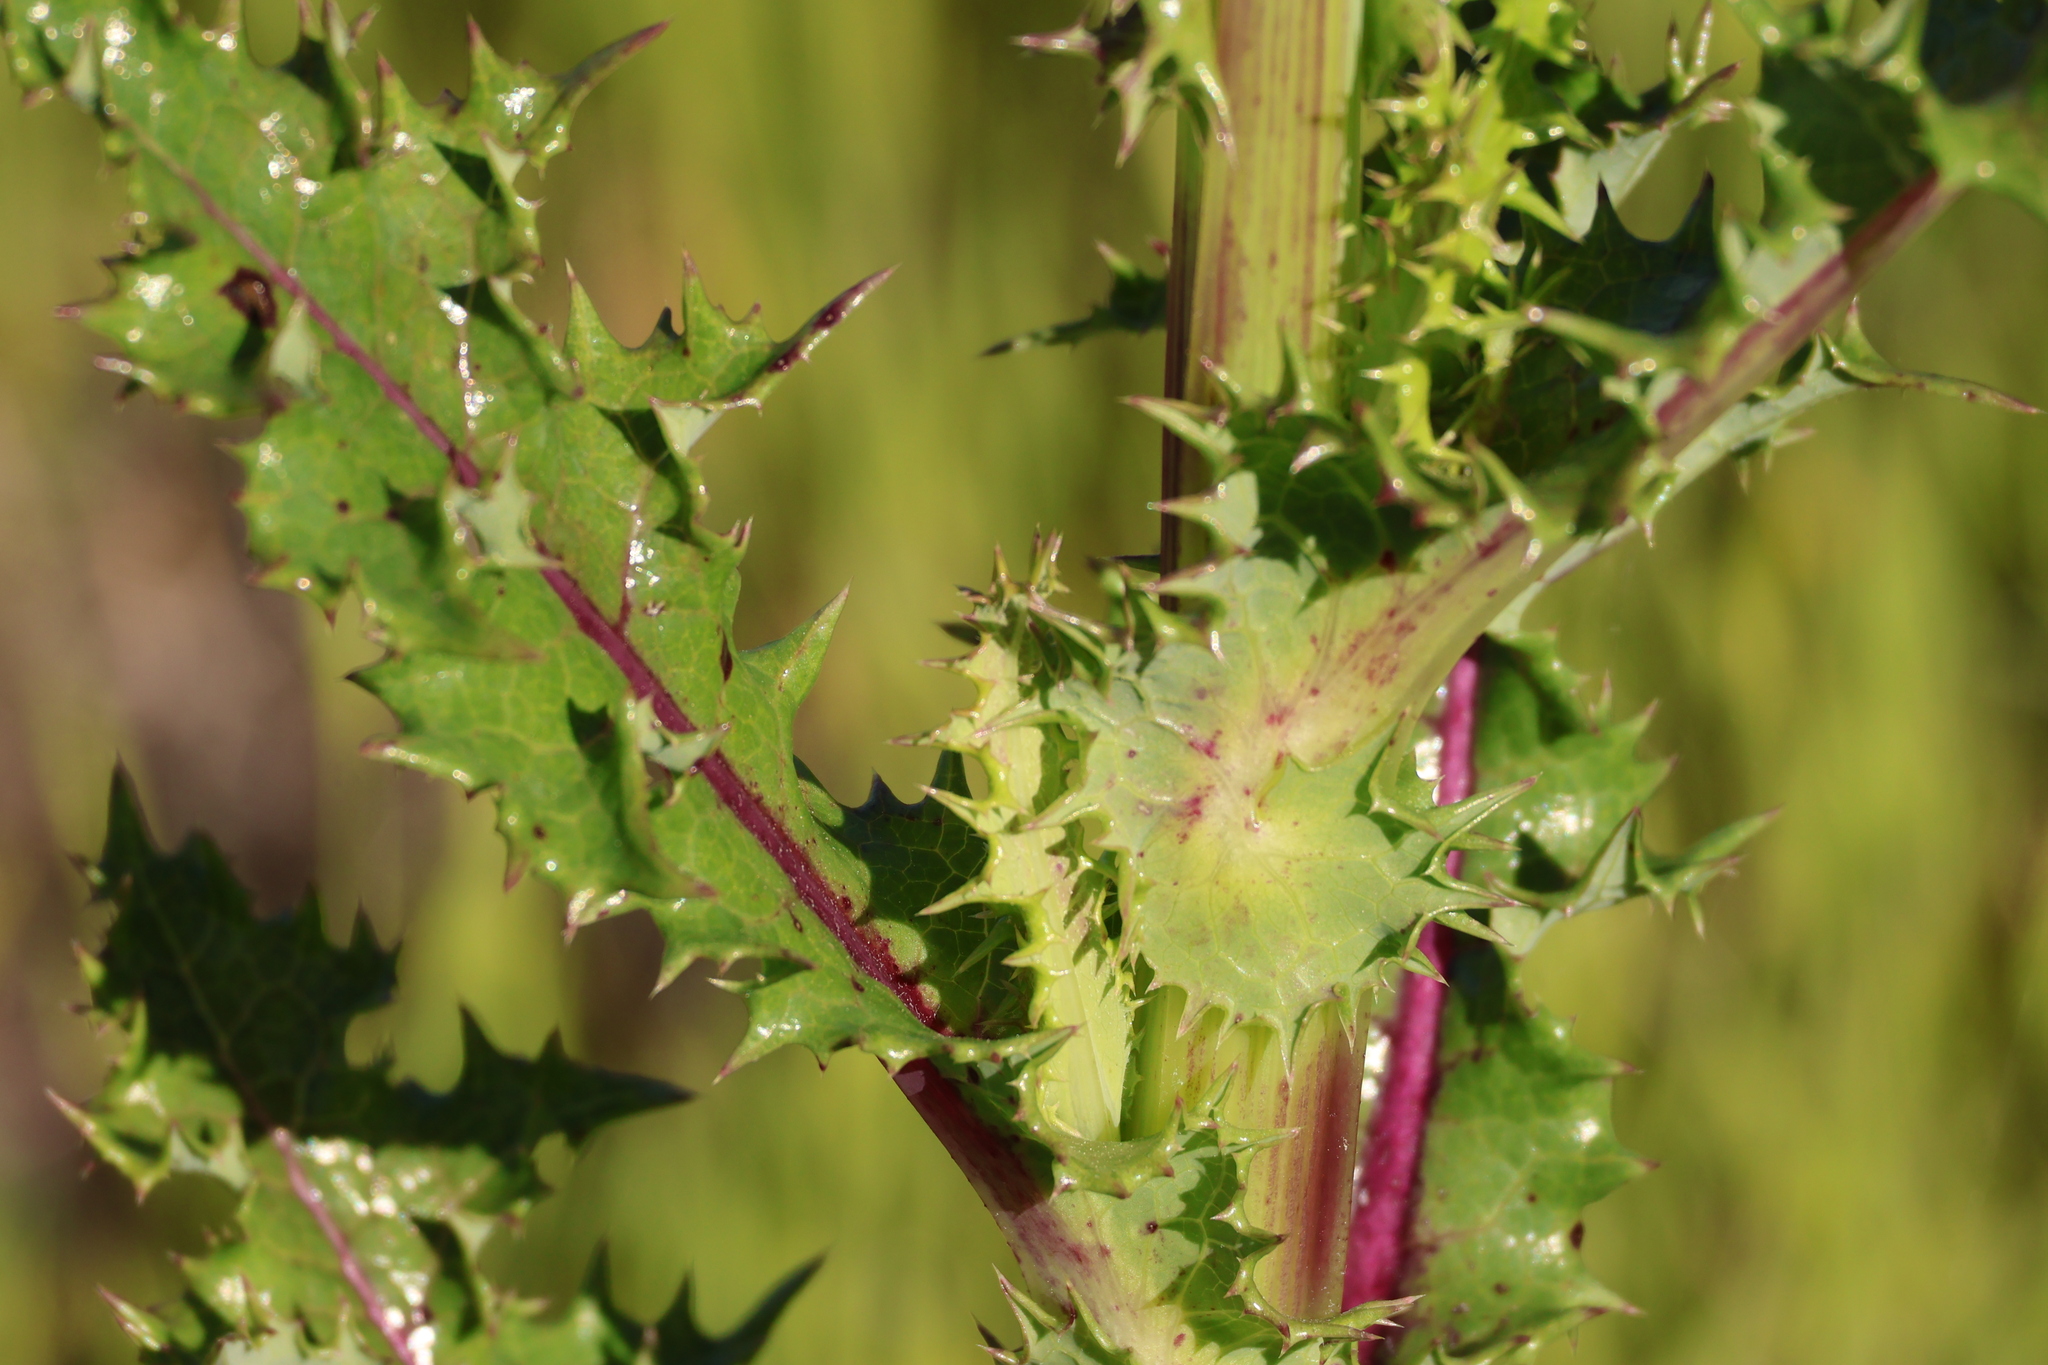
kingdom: Plantae
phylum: Tracheophyta
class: Magnoliopsida
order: Asterales
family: Asteraceae
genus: Sonchus
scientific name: Sonchus asper
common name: Prickly sow-thistle
